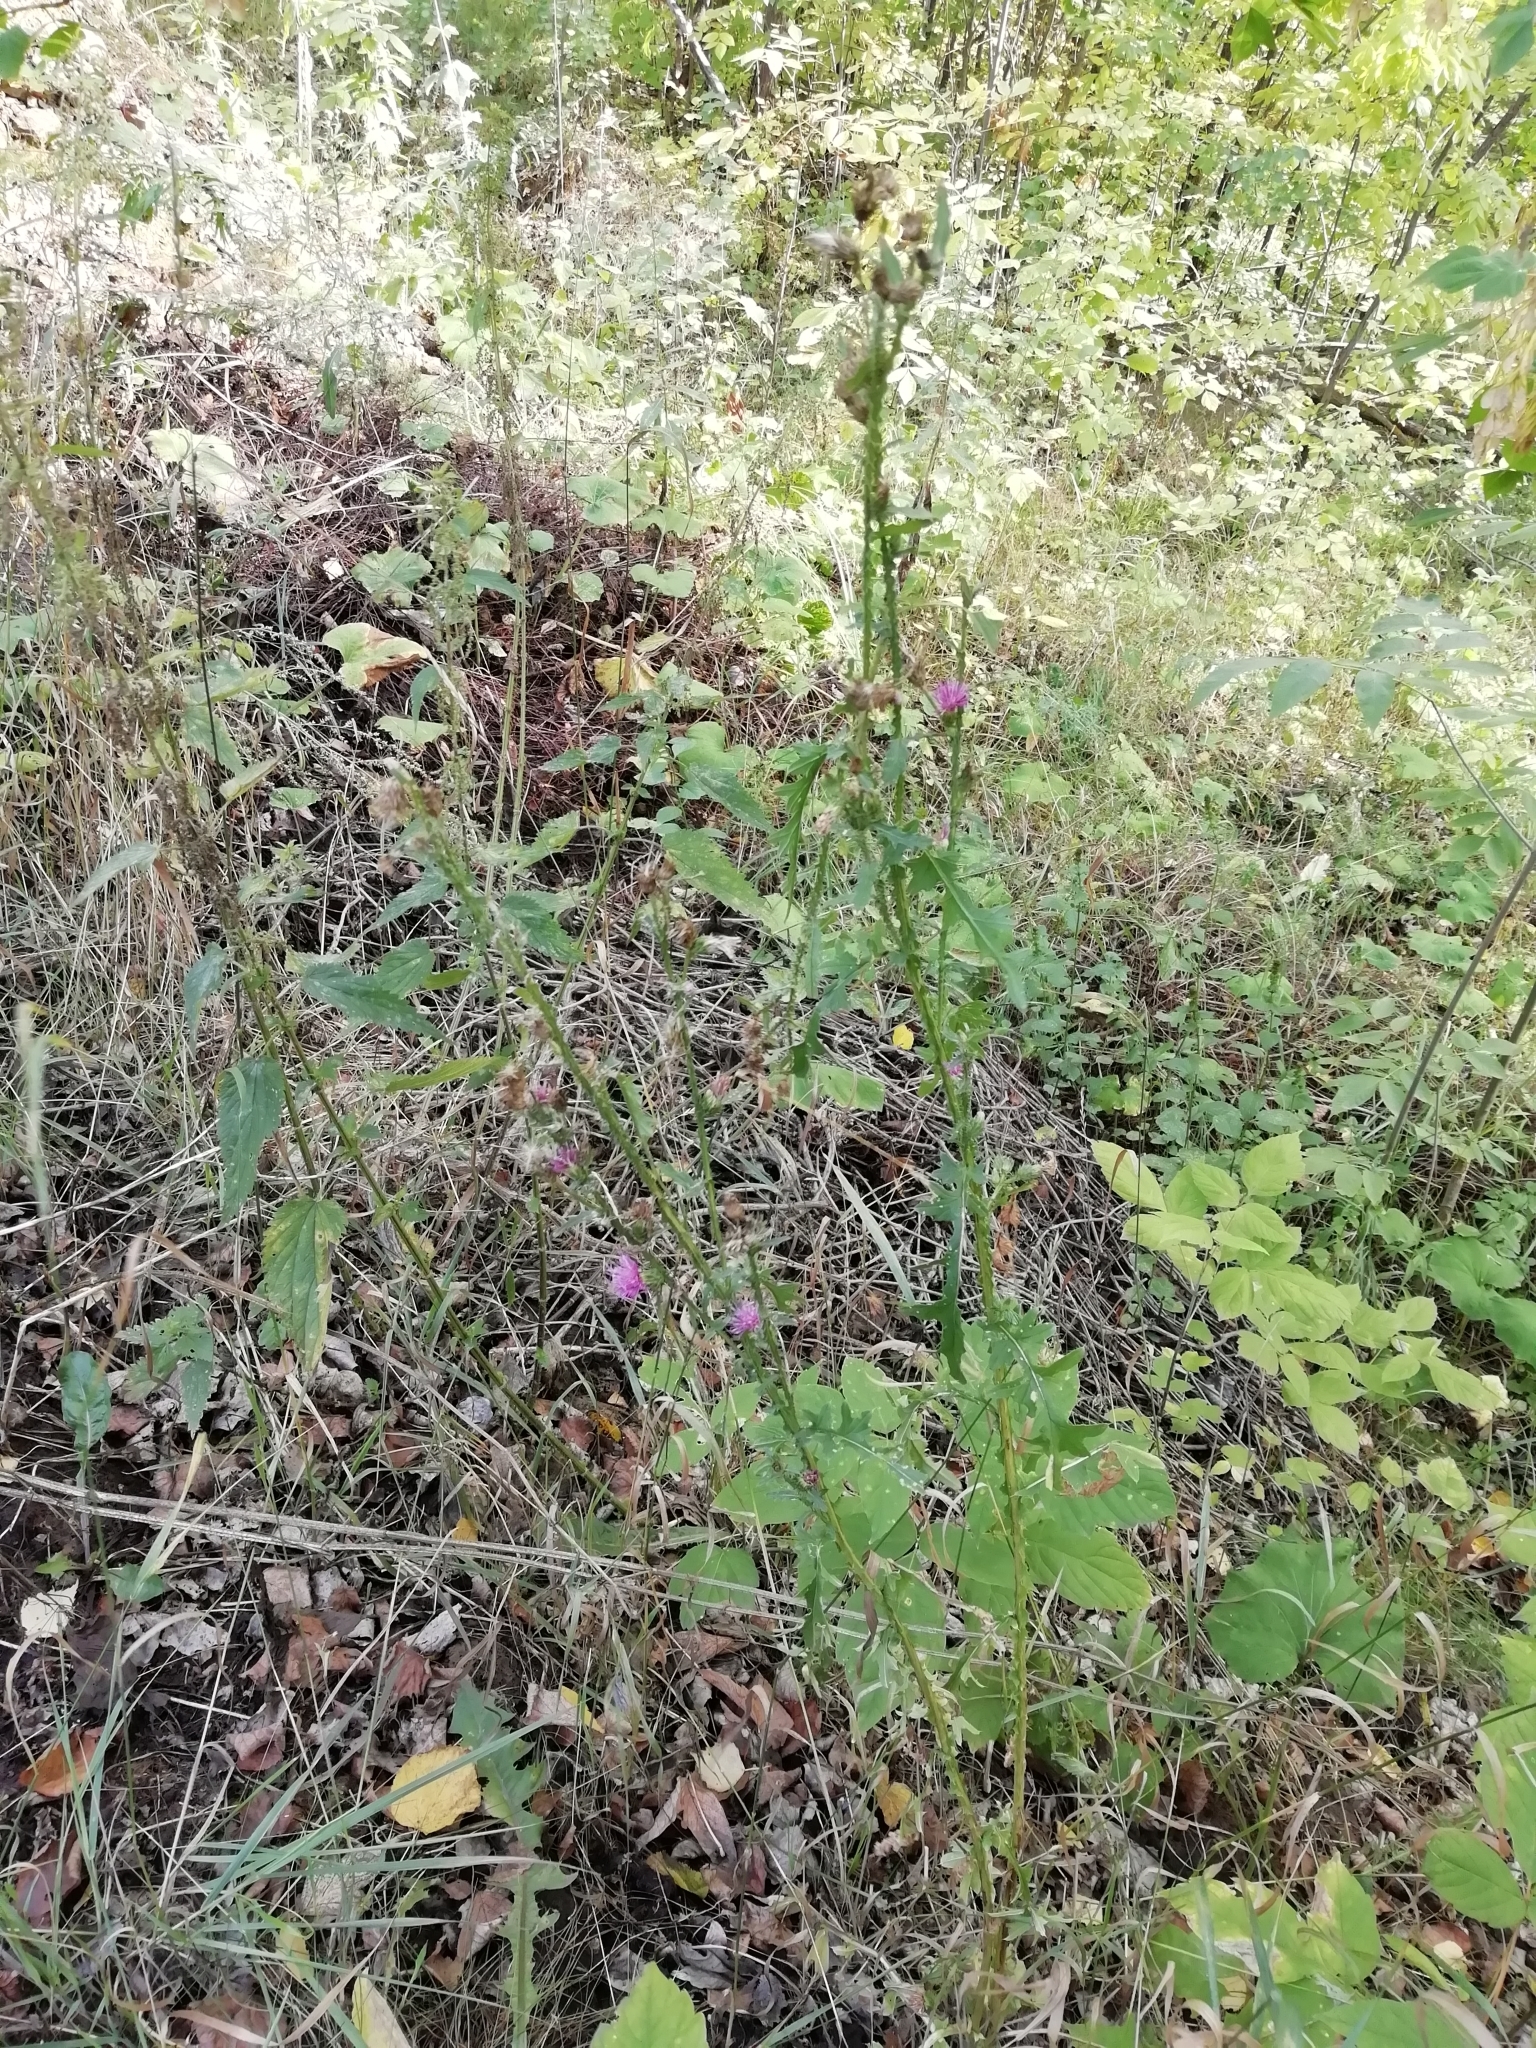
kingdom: Plantae
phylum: Tracheophyta
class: Magnoliopsida
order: Asterales
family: Asteraceae
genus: Carduus
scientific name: Carduus crispus
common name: Welted thistle
